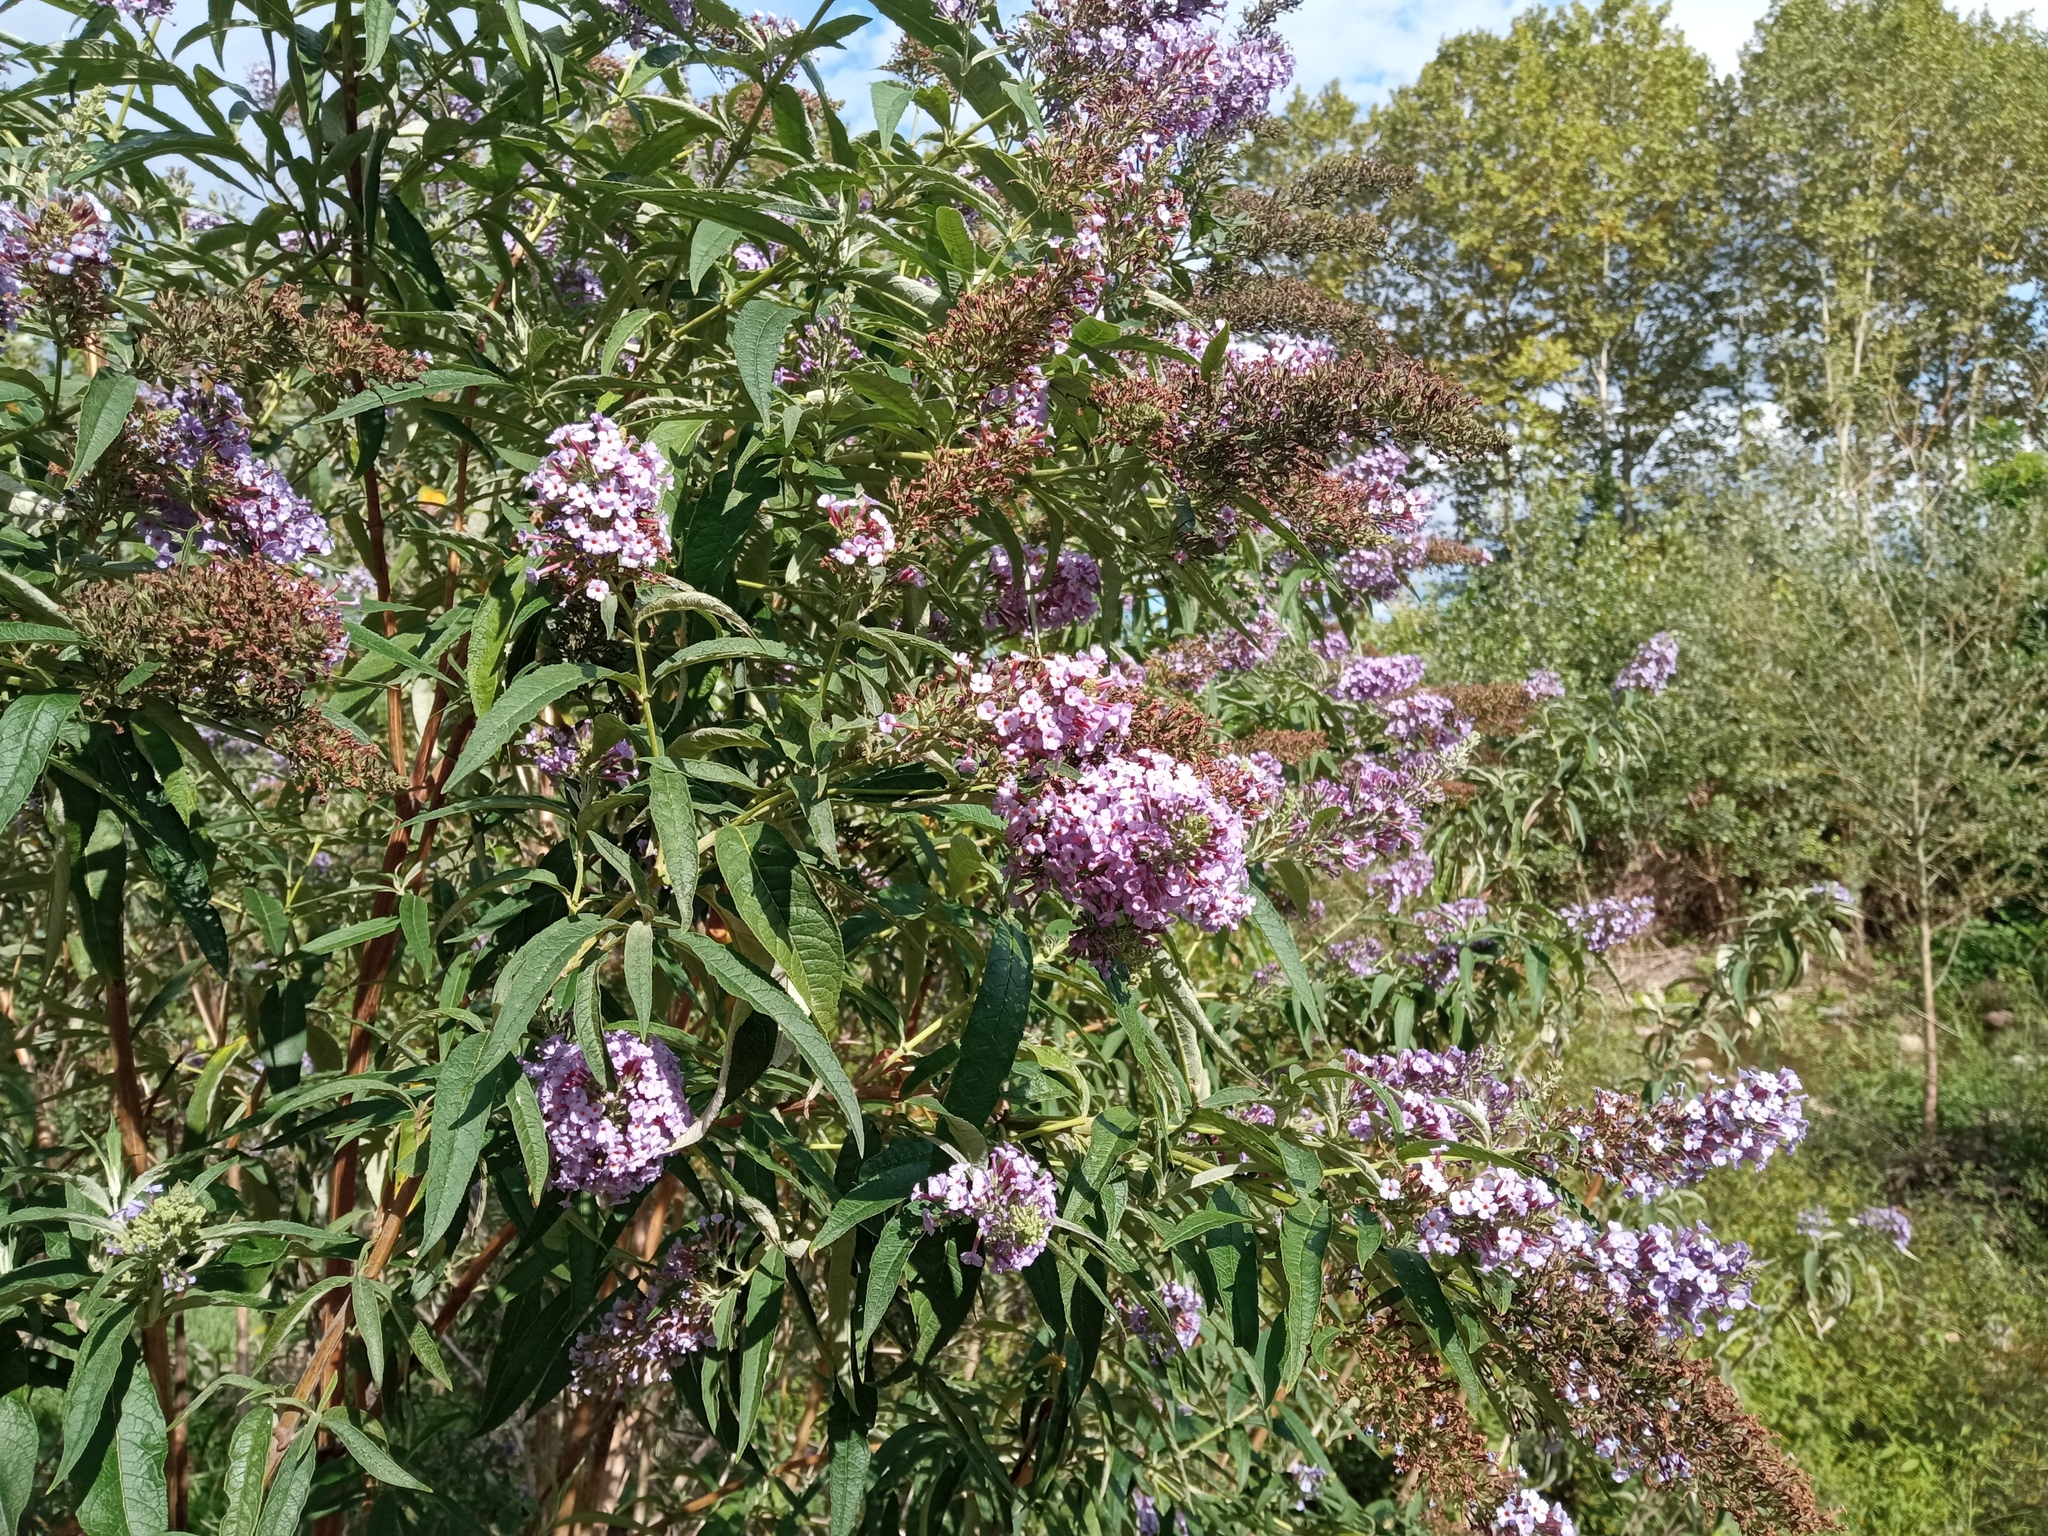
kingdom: Plantae
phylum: Tracheophyta
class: Magnoliopsida
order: Lamiales
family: Scrophulariaceae
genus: Buddleja
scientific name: Buddleja davidii
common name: Butterfly-bush
